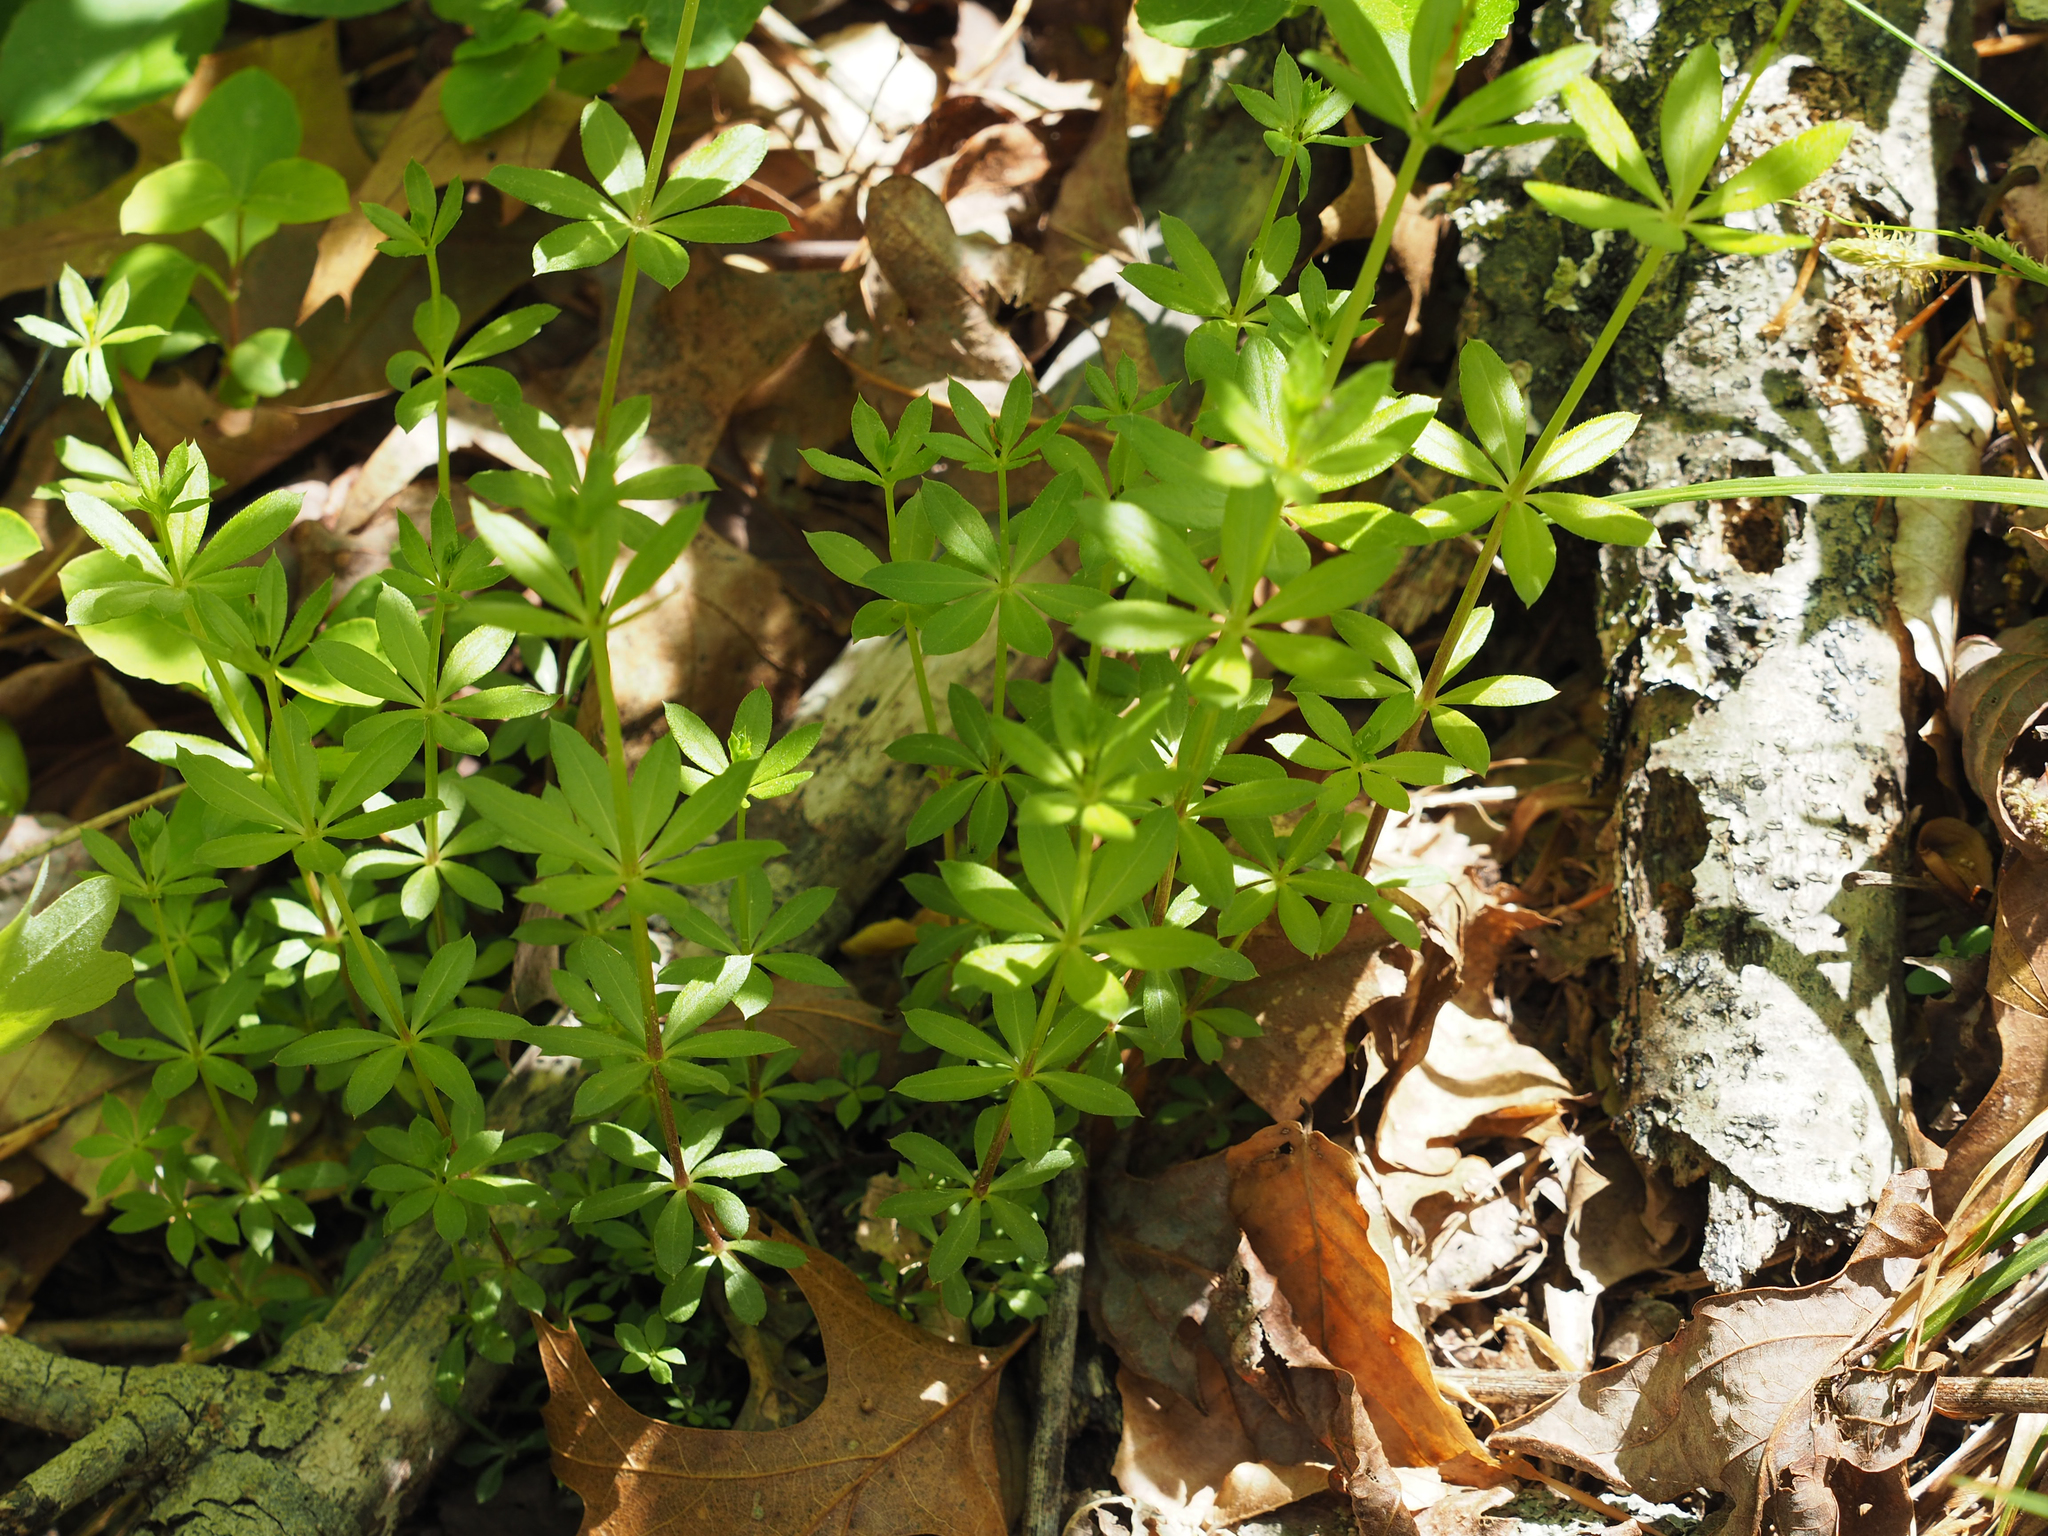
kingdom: Plantae
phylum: Tracheophyta
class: Magnoliopsida
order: Gentianales
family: Rubiaceae
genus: Galium
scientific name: Galium triflorum
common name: Fragrant bedstraw
